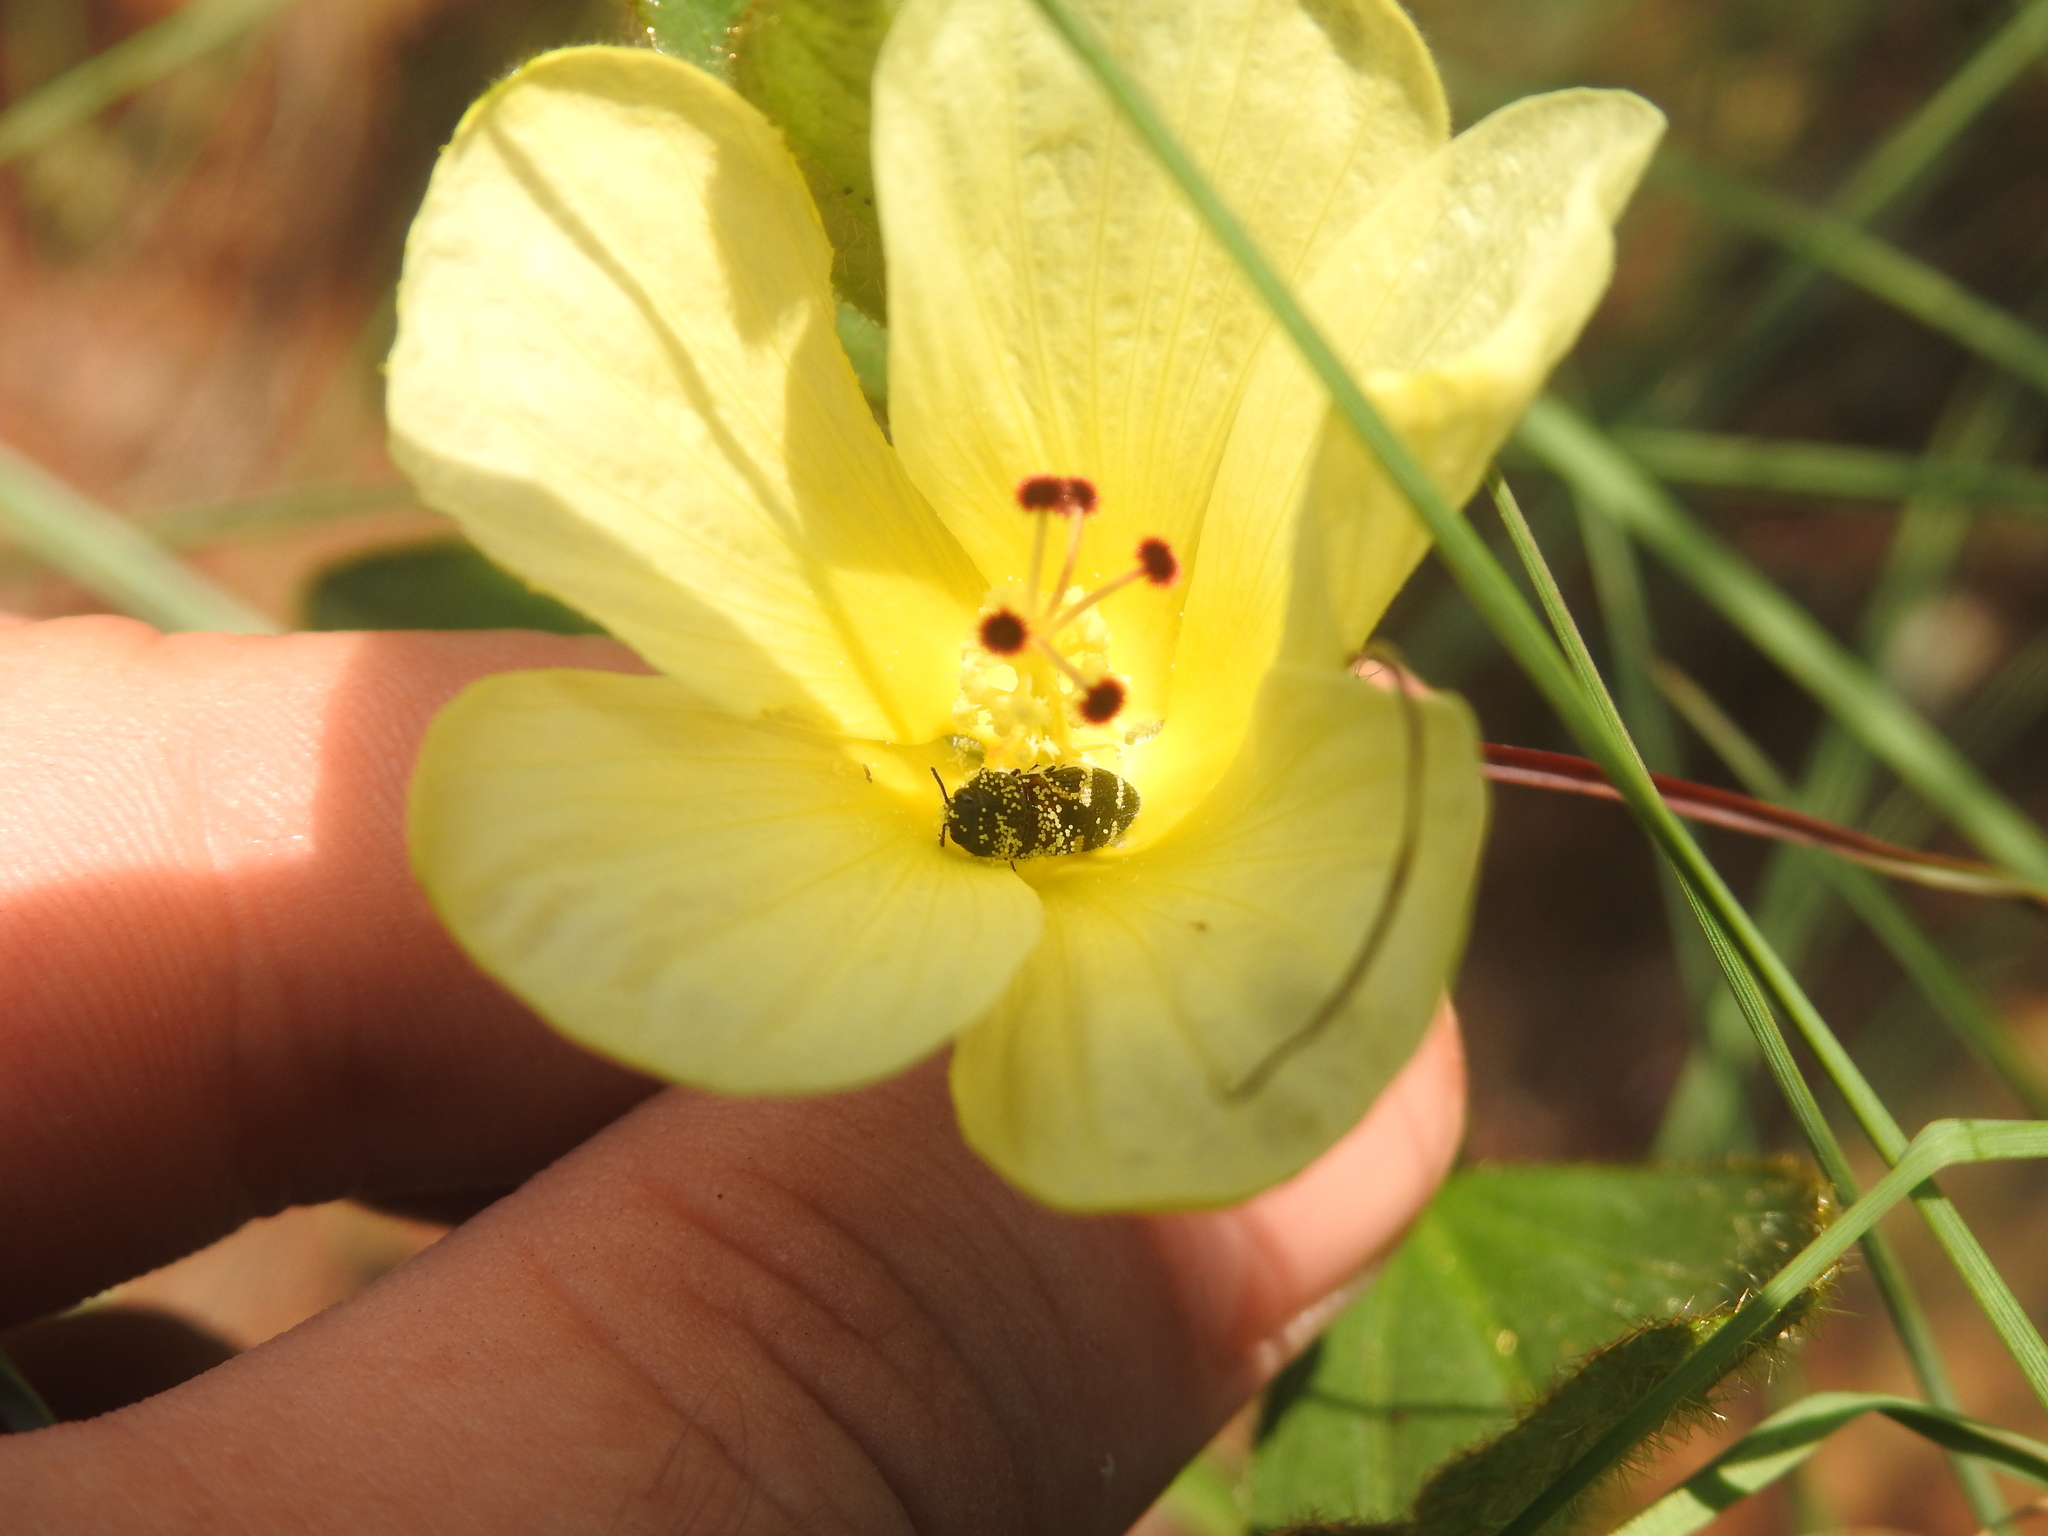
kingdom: Plantae
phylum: Tracheophyta
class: Magnoliopsida
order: Malvales
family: Malvaceae
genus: Hibiscus
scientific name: Hibiscus aethiopicus
